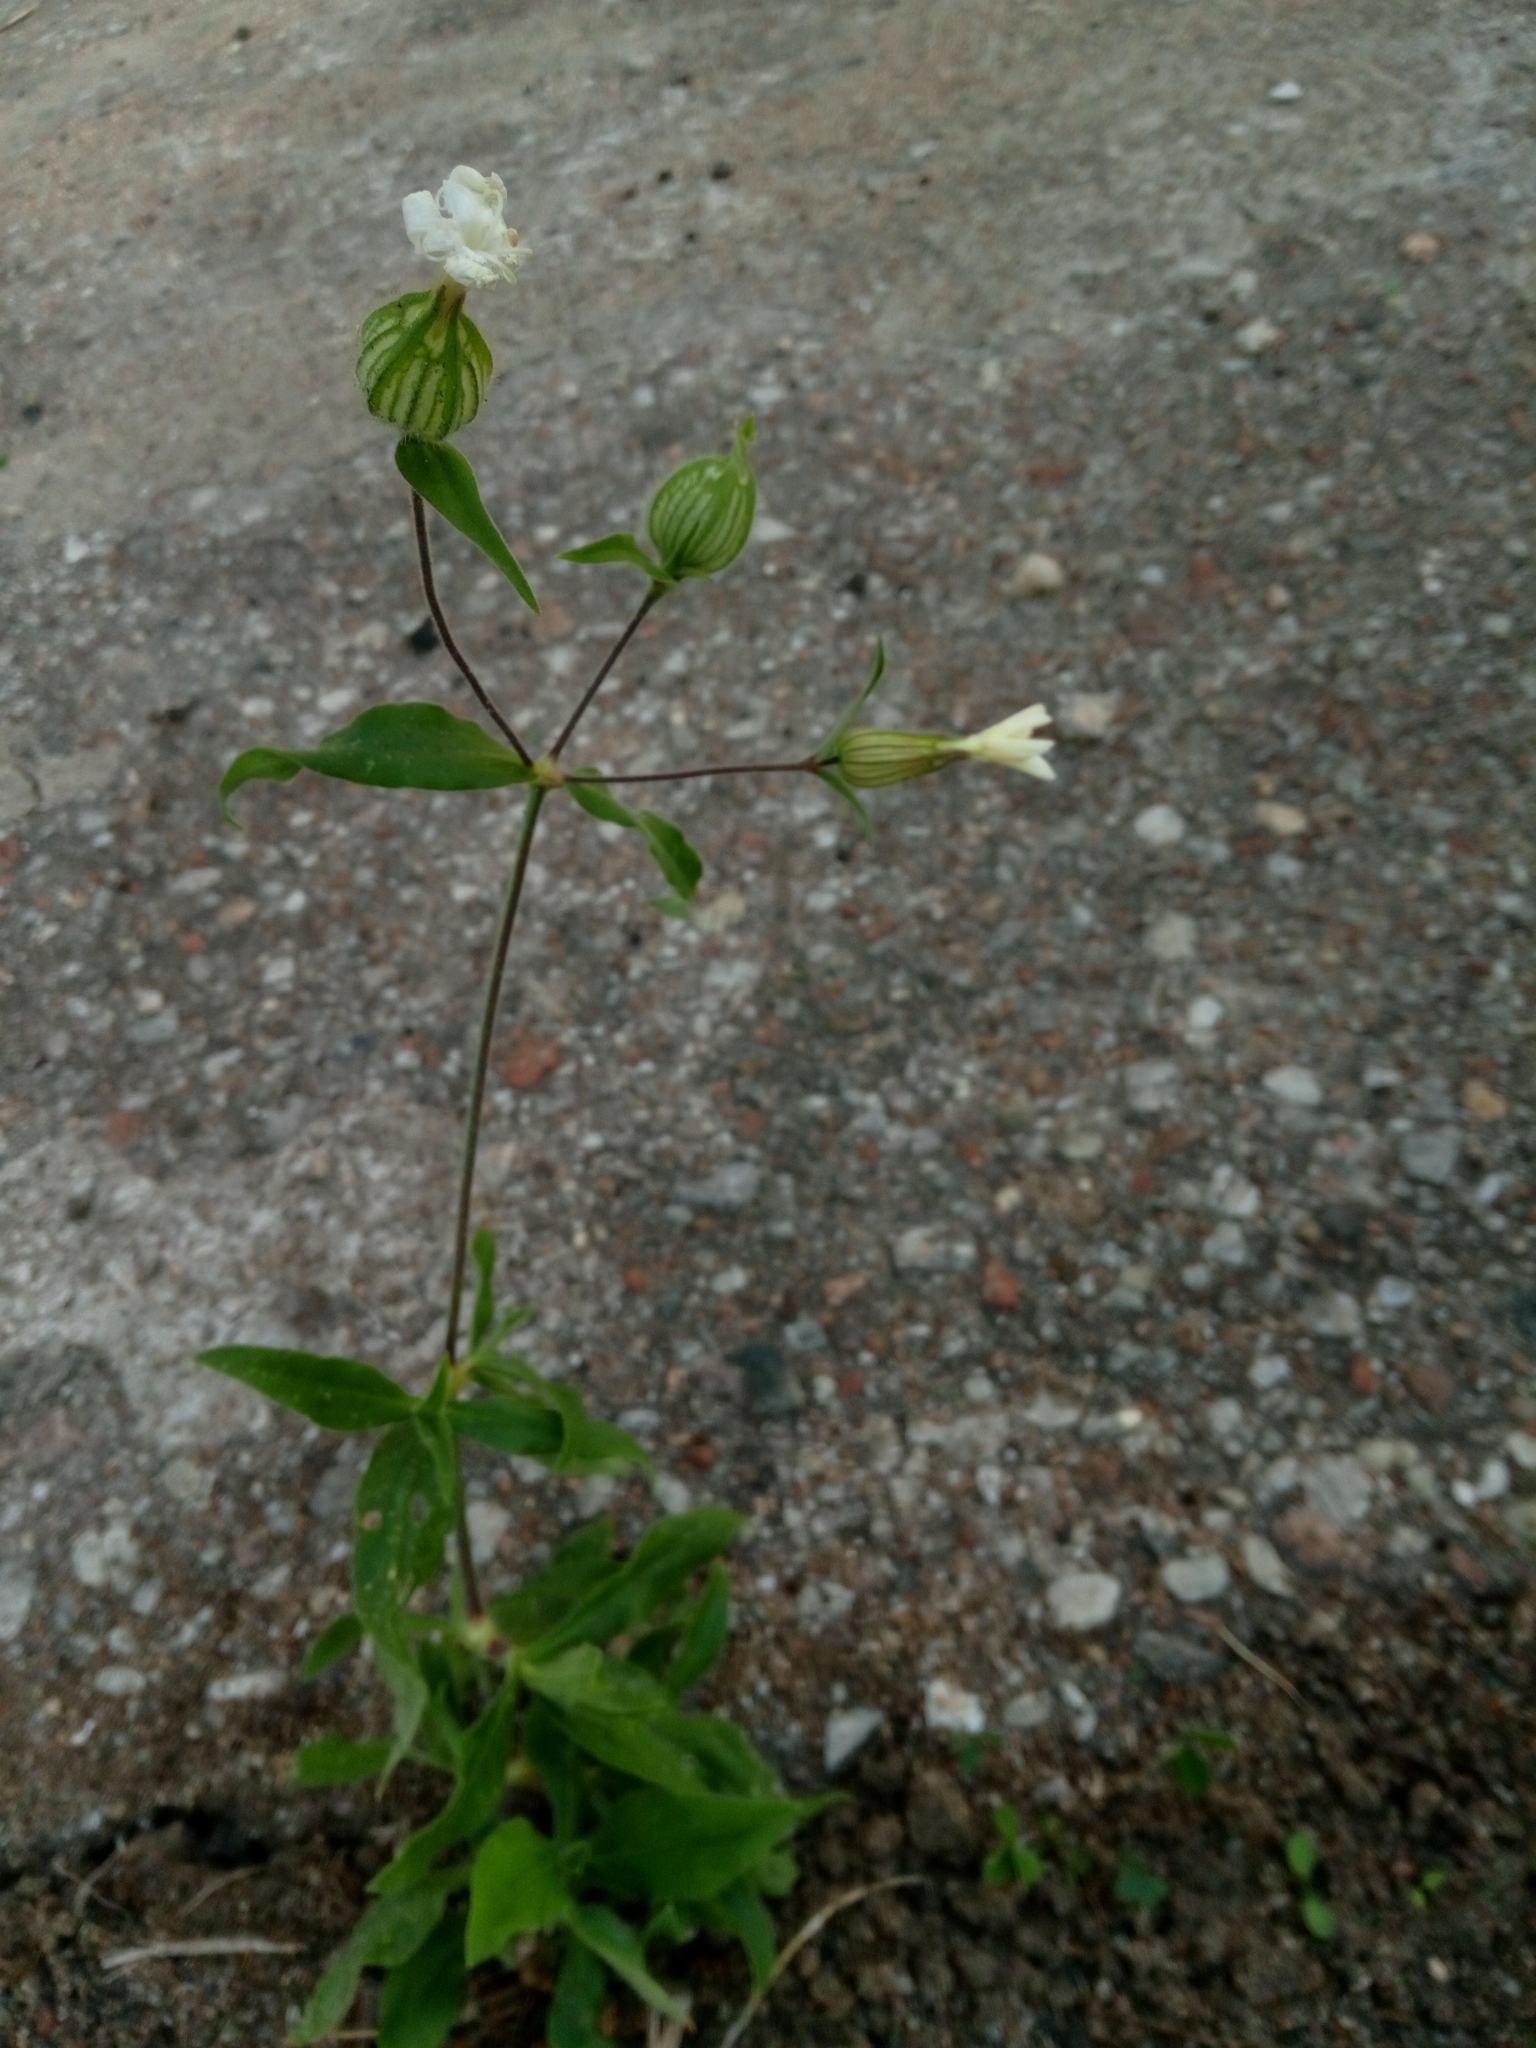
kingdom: Plantae
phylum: Tracheophyta
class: Magnoliopsida
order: Caryophyllales
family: Caryophyllaceae
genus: Silene
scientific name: Silene latifolia
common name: White campion
